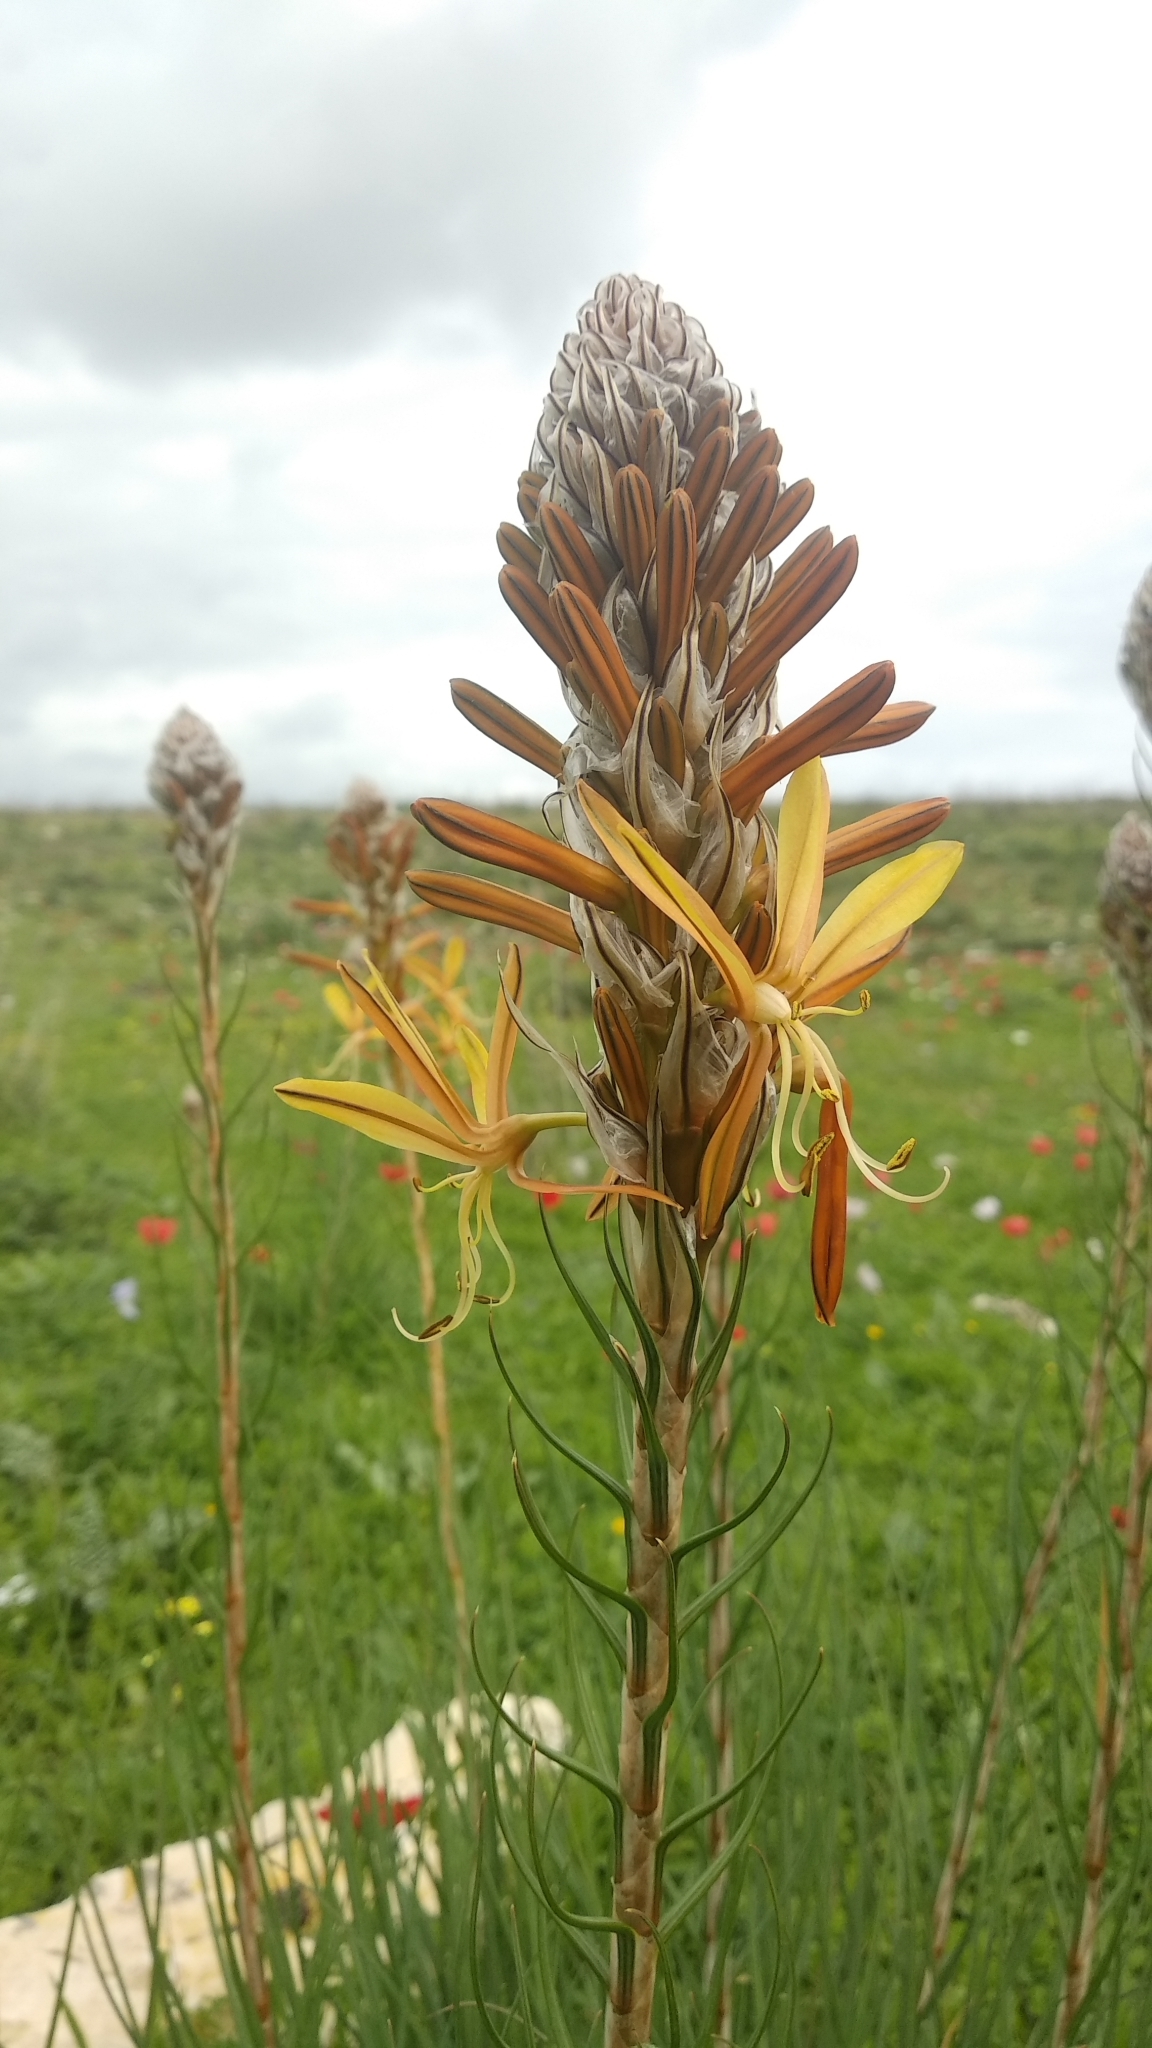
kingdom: Plantae
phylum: Tracheophyta
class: Liliopsida
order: Asparagales
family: Asphodelaceae
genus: Asphodeline
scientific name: Asphodeline lutea
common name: Yellow asphodel
